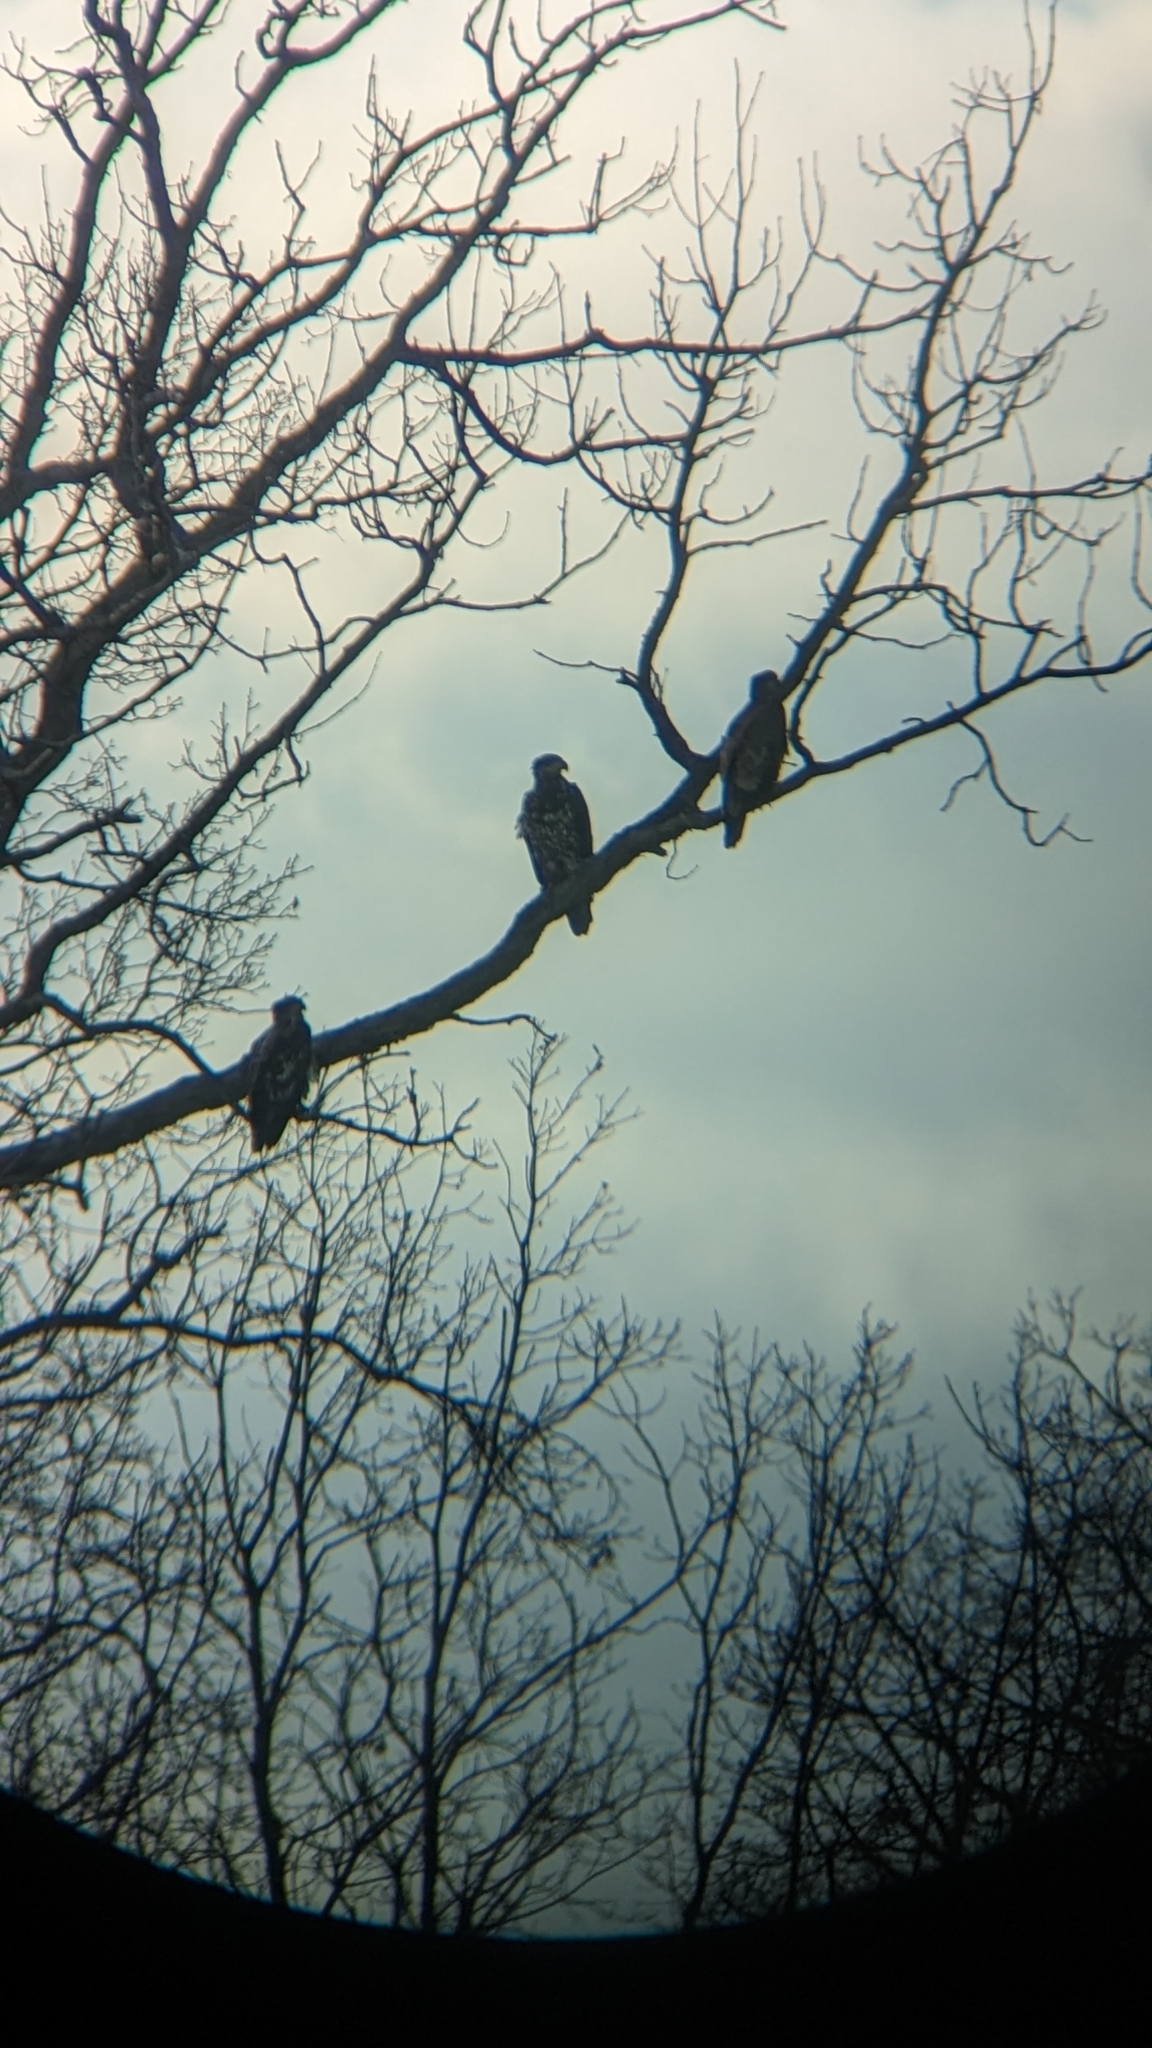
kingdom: Animalia
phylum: Chordata
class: Aves
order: Accipitriformes
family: Accipitridae
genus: Haliaeetus
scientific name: Haliaeetus leucocephalus
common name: Bald eagle
